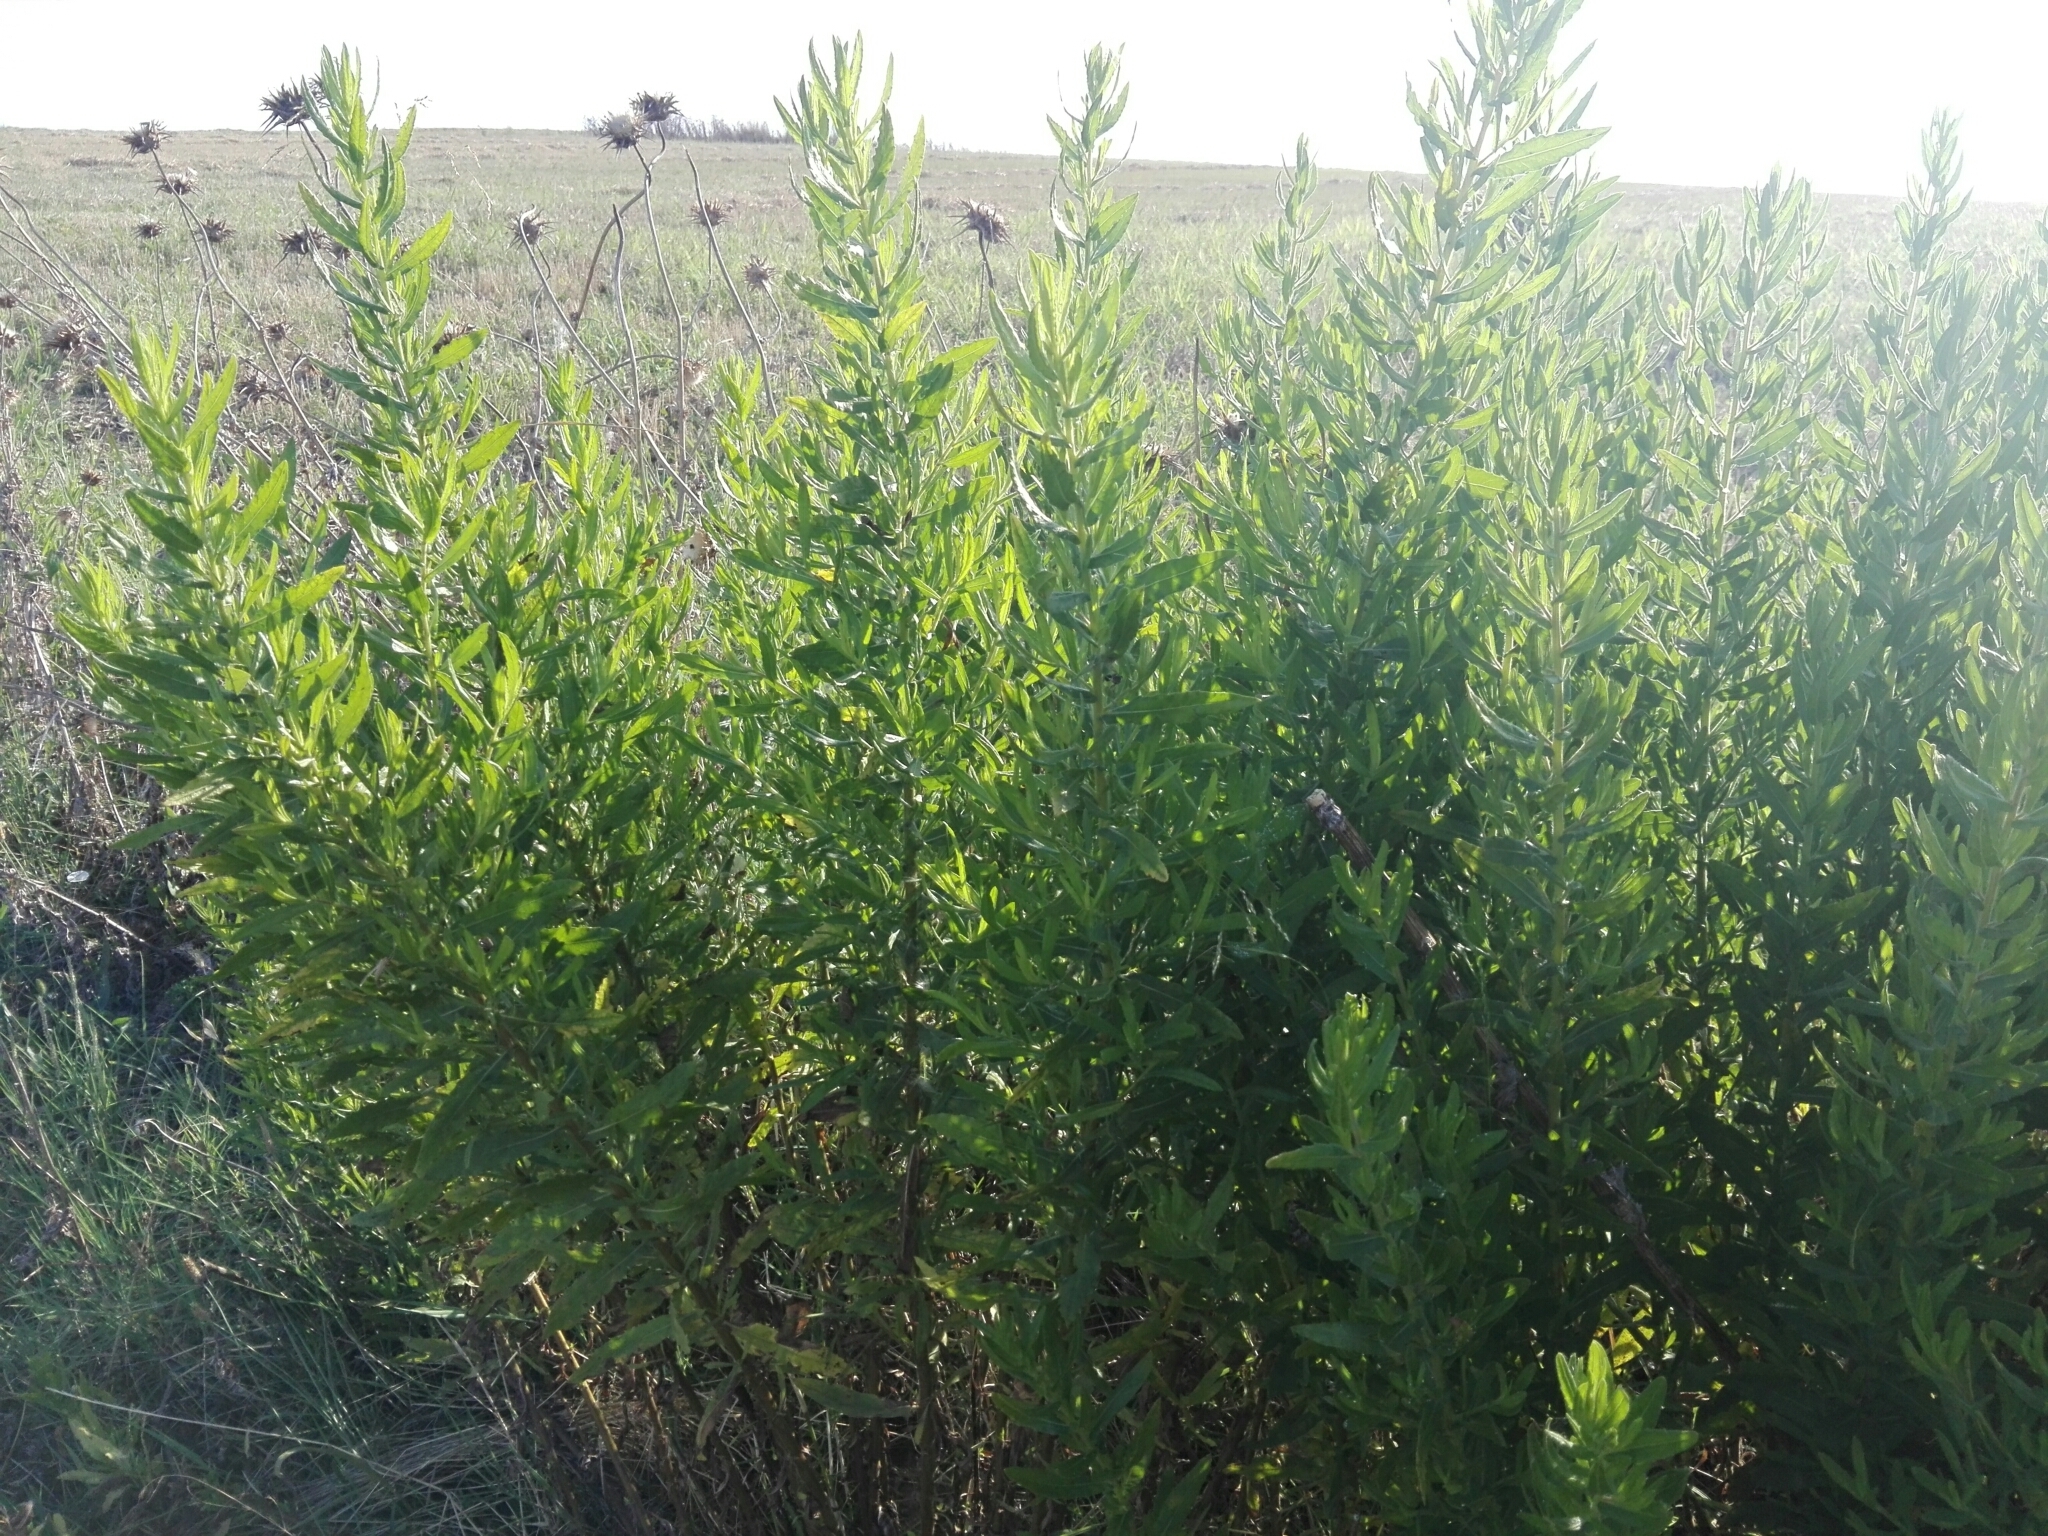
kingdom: Plantae
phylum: Tracheophyta
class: Magnoliopsida
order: Asterales
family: Asteraceae
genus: Dittrichia
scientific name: Dittrichia viscosa
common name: Woody fleabane
